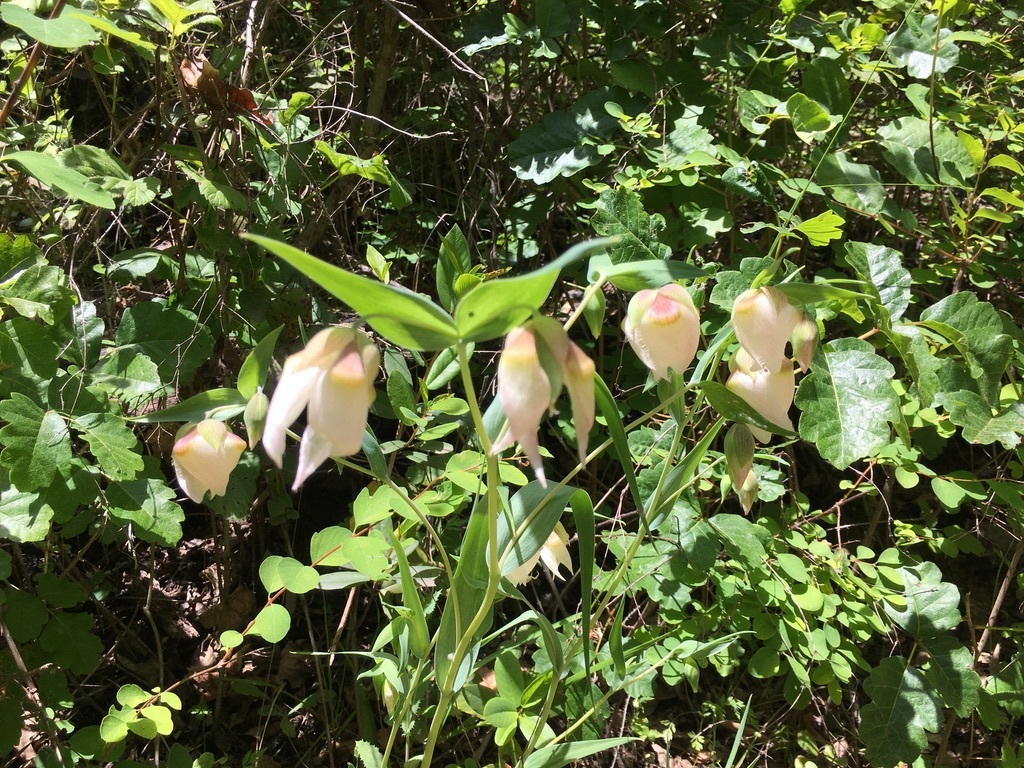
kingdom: Plantae
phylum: Tracheophyta
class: Liliopsida
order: Liliales
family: Liliaceae
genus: Calochortus
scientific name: Calochortus albus
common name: Fairy-lantern
